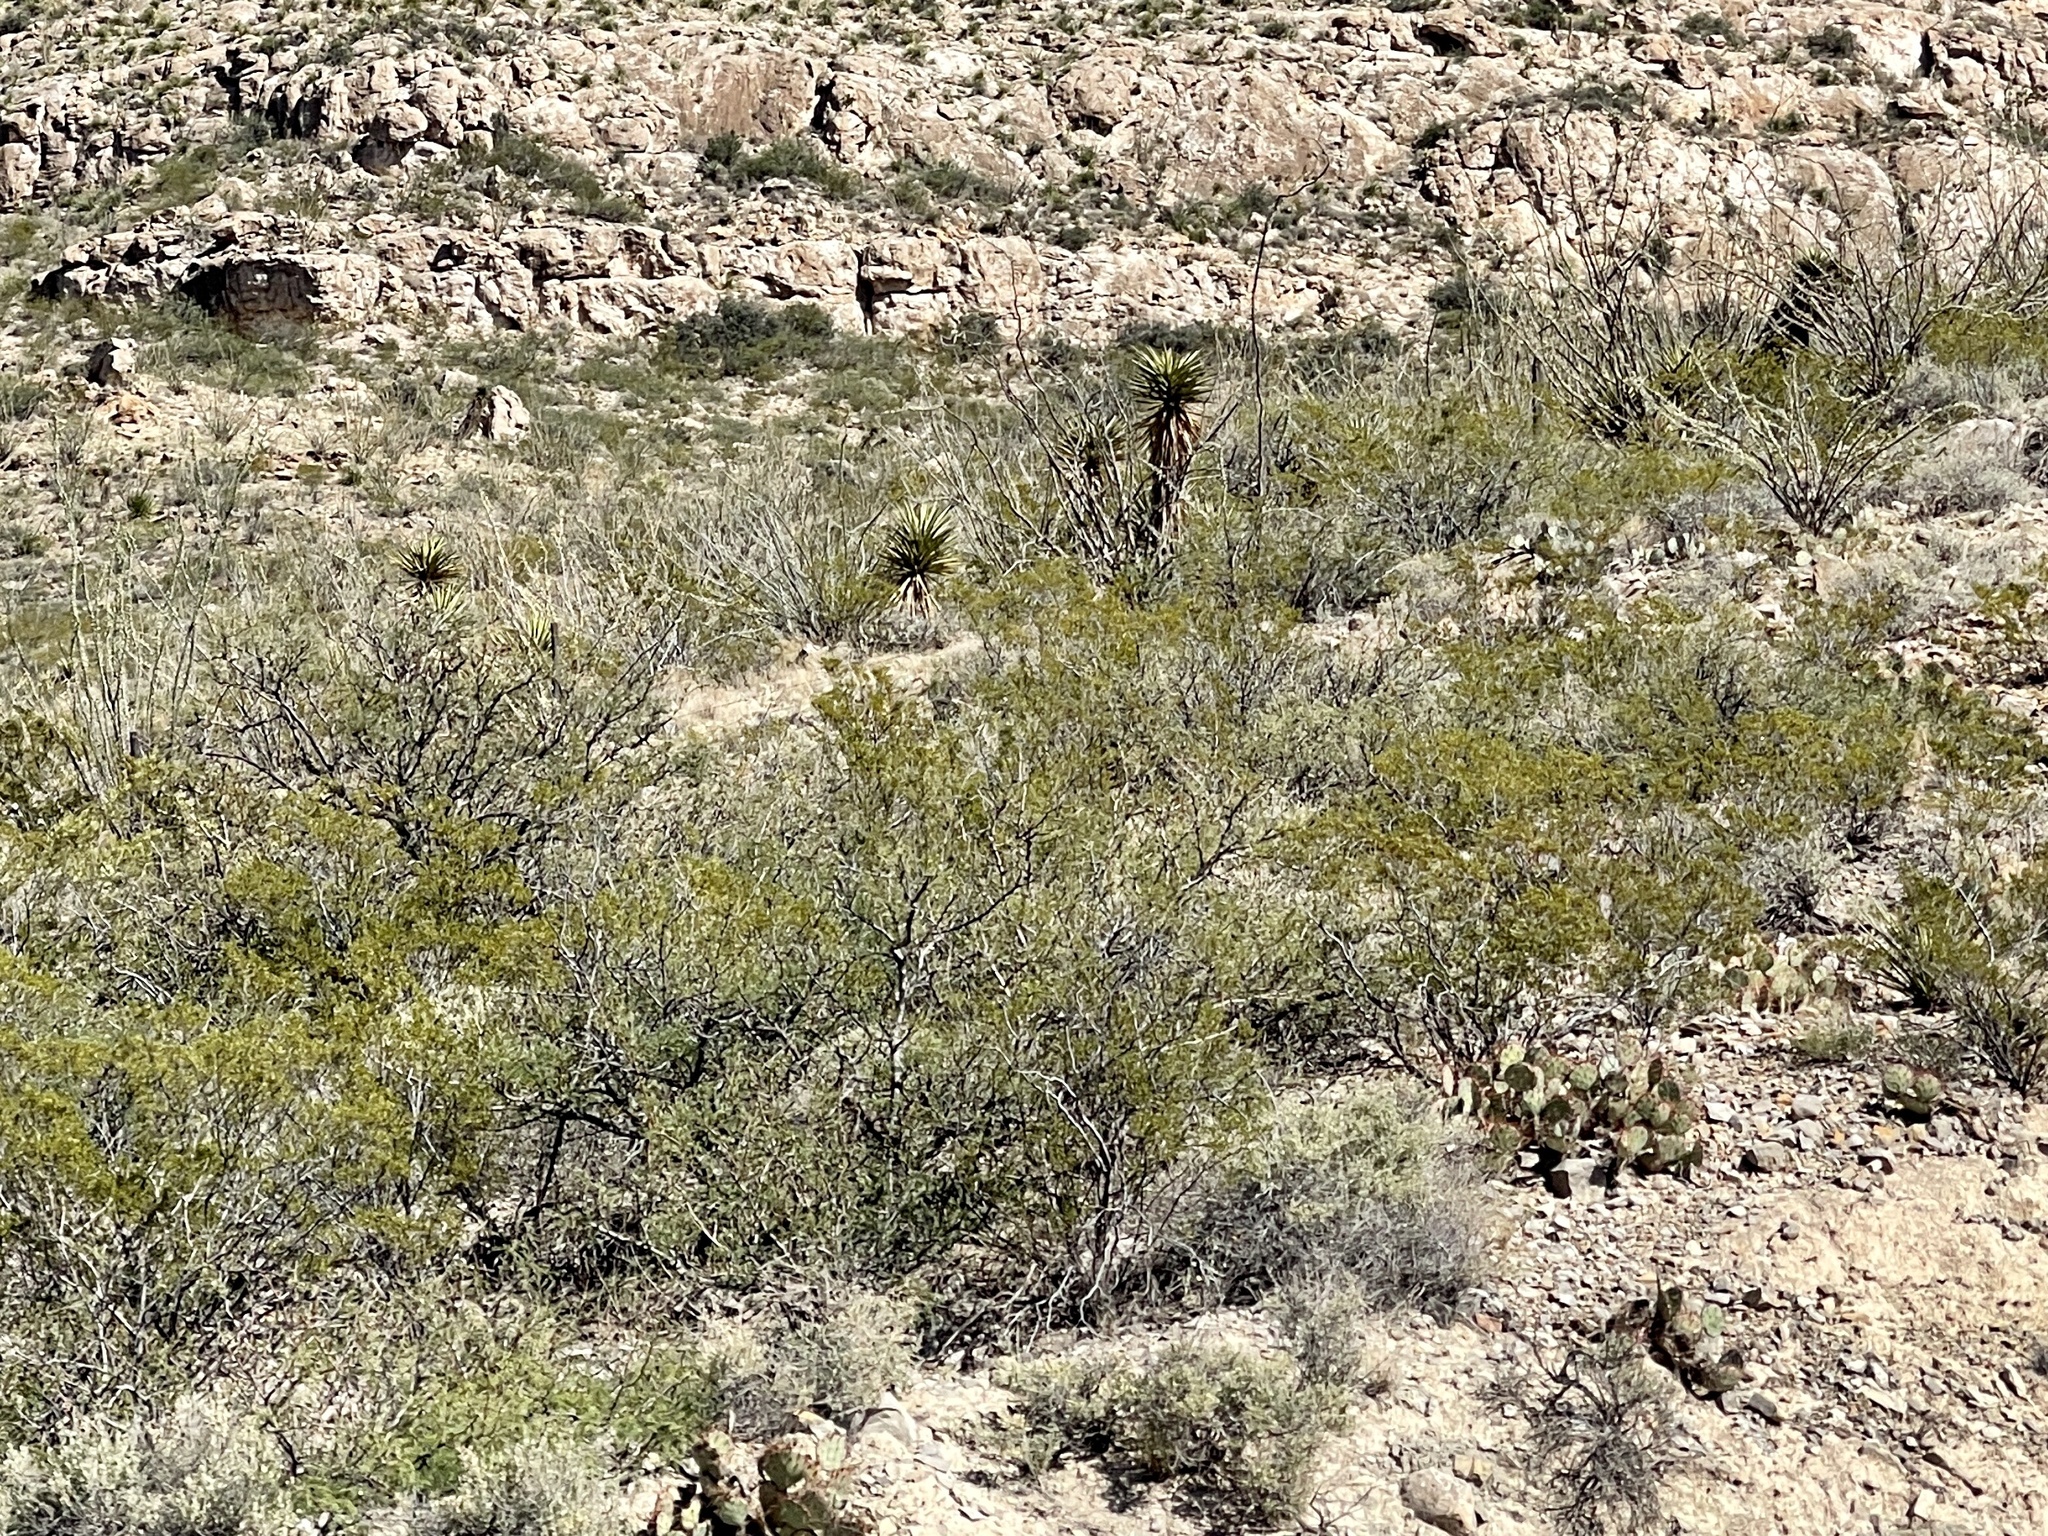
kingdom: Plantae
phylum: Tracheophyta
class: Magnoliopsida
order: Zygophyllales
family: Zygophyllaceae
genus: Larrea
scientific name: Larrea tridentata
